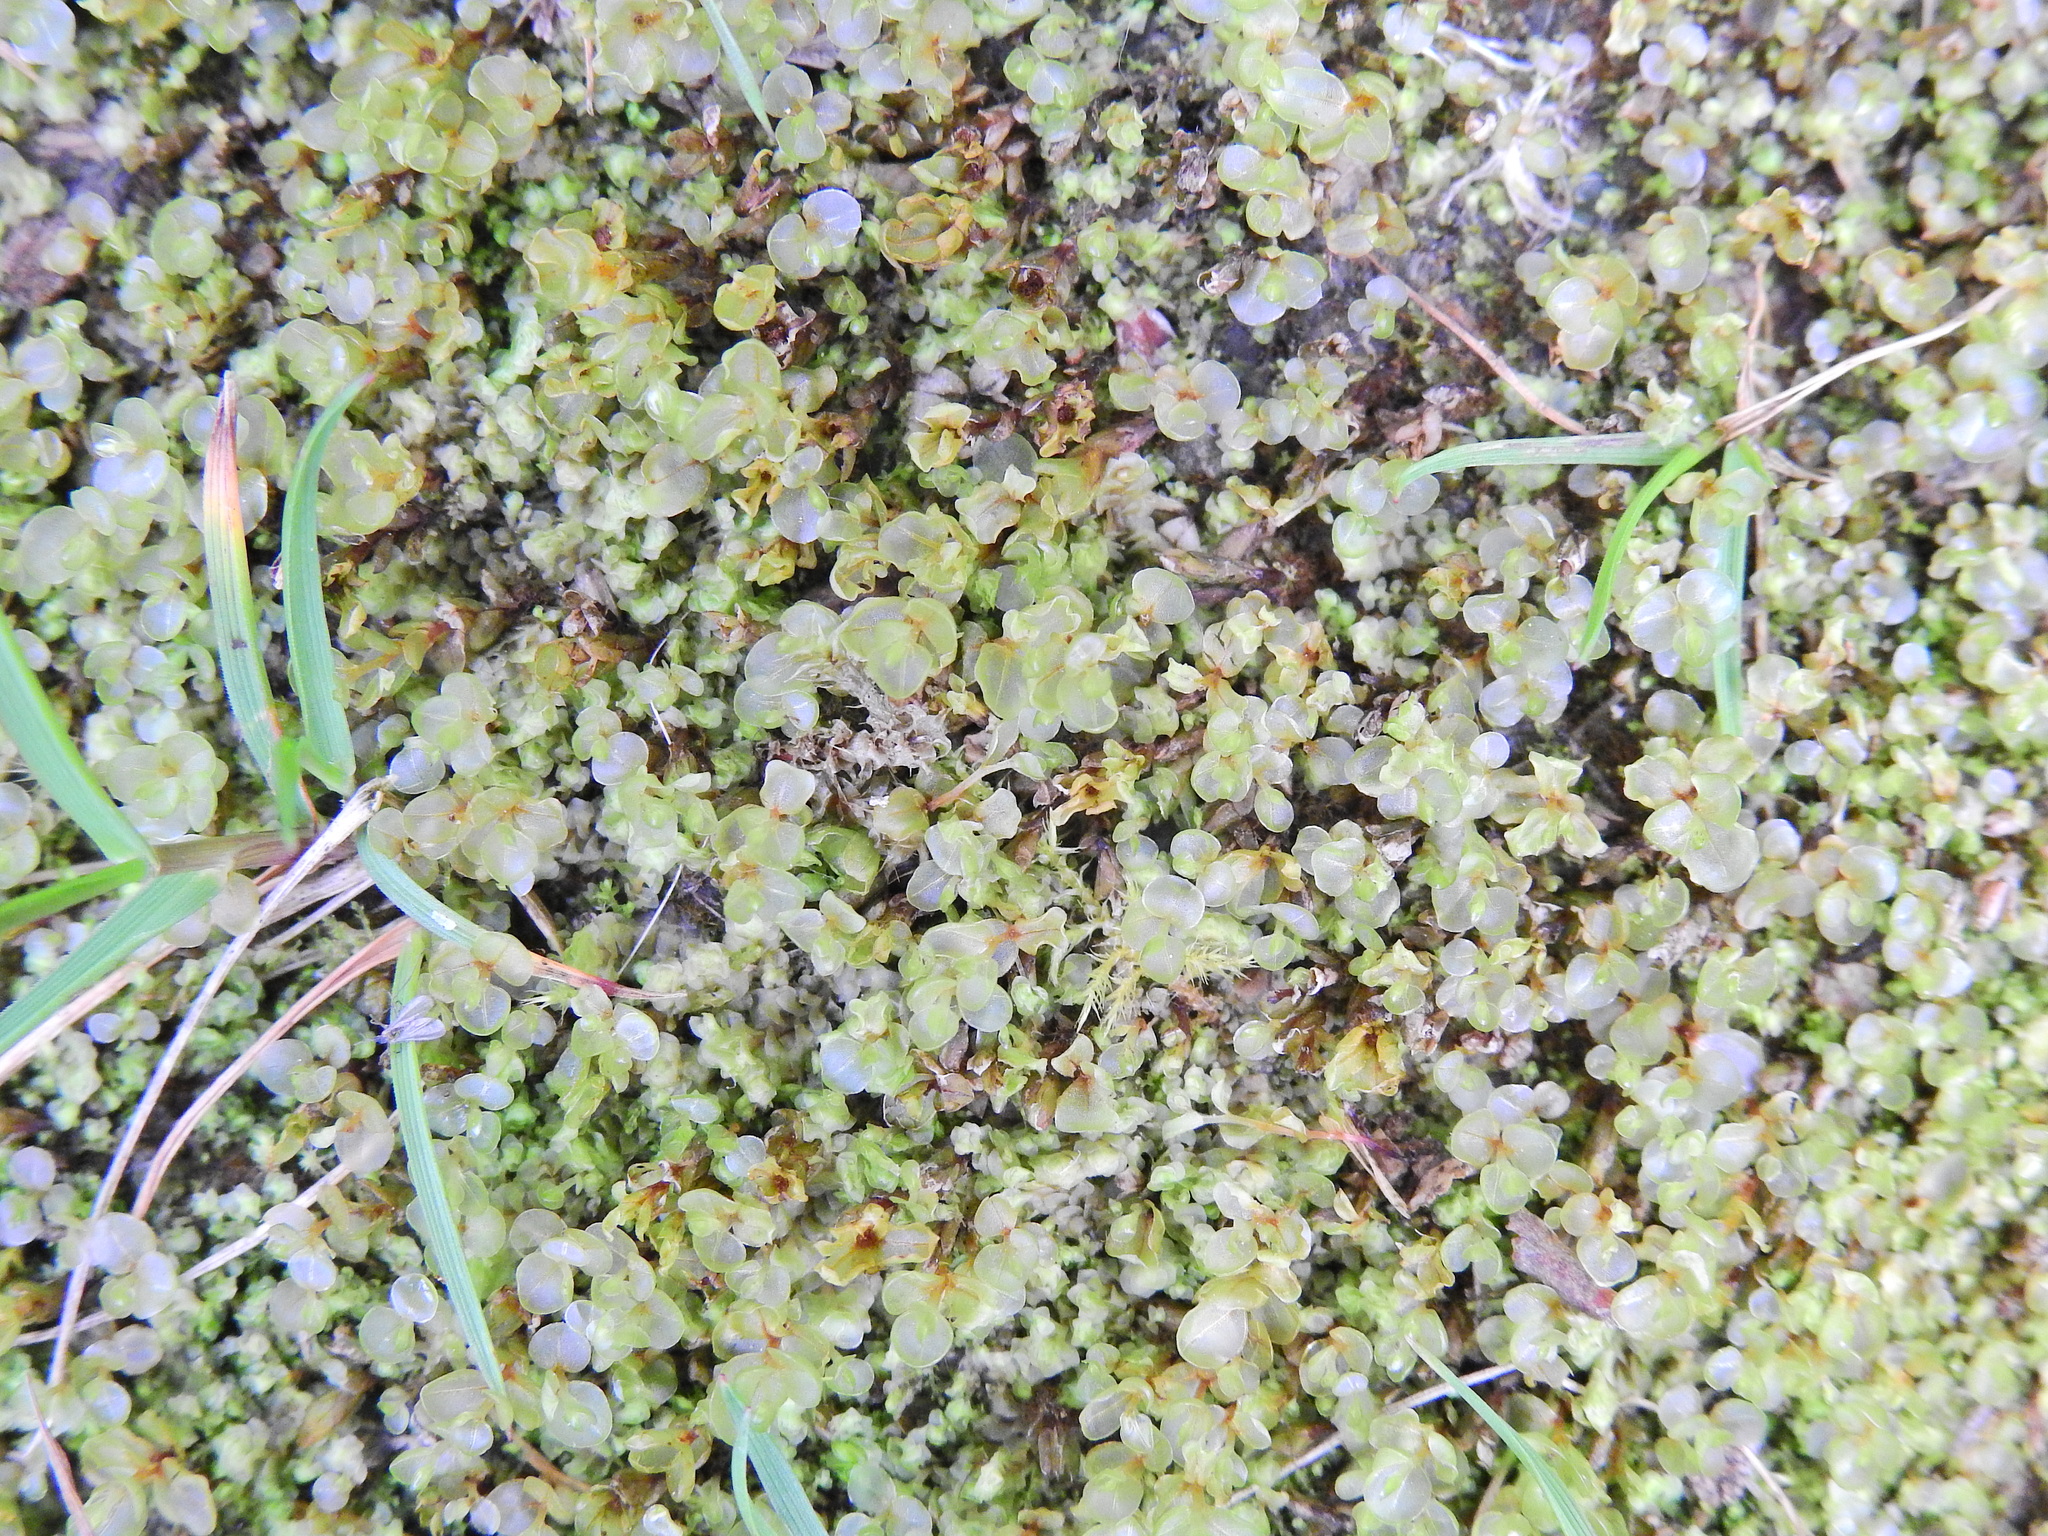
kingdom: Plantae
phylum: Bryophyta
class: Bryopsida
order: Bryales
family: Mniaceae
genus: Rhizomnium
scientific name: Rhizomnium punctatum
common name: Dotted leafy moss
